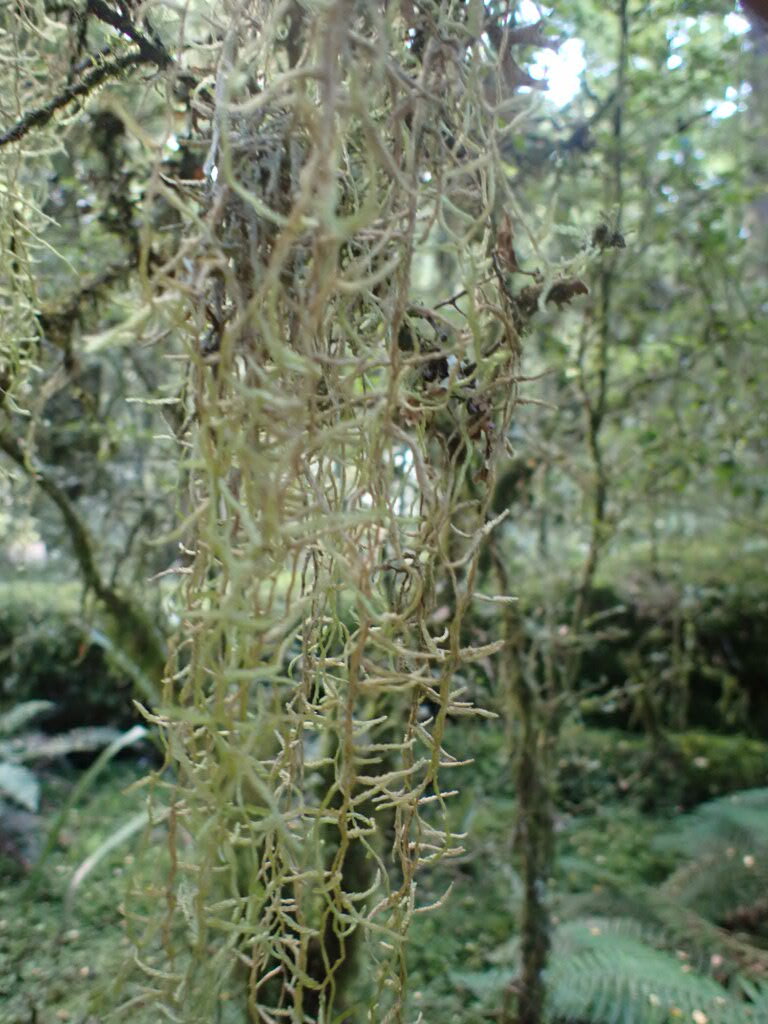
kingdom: Plantae
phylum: Bryophyta
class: Bryopsida
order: Hypnales
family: Lembophyllaceae
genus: Weymouthia
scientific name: Weymouthia mollis
